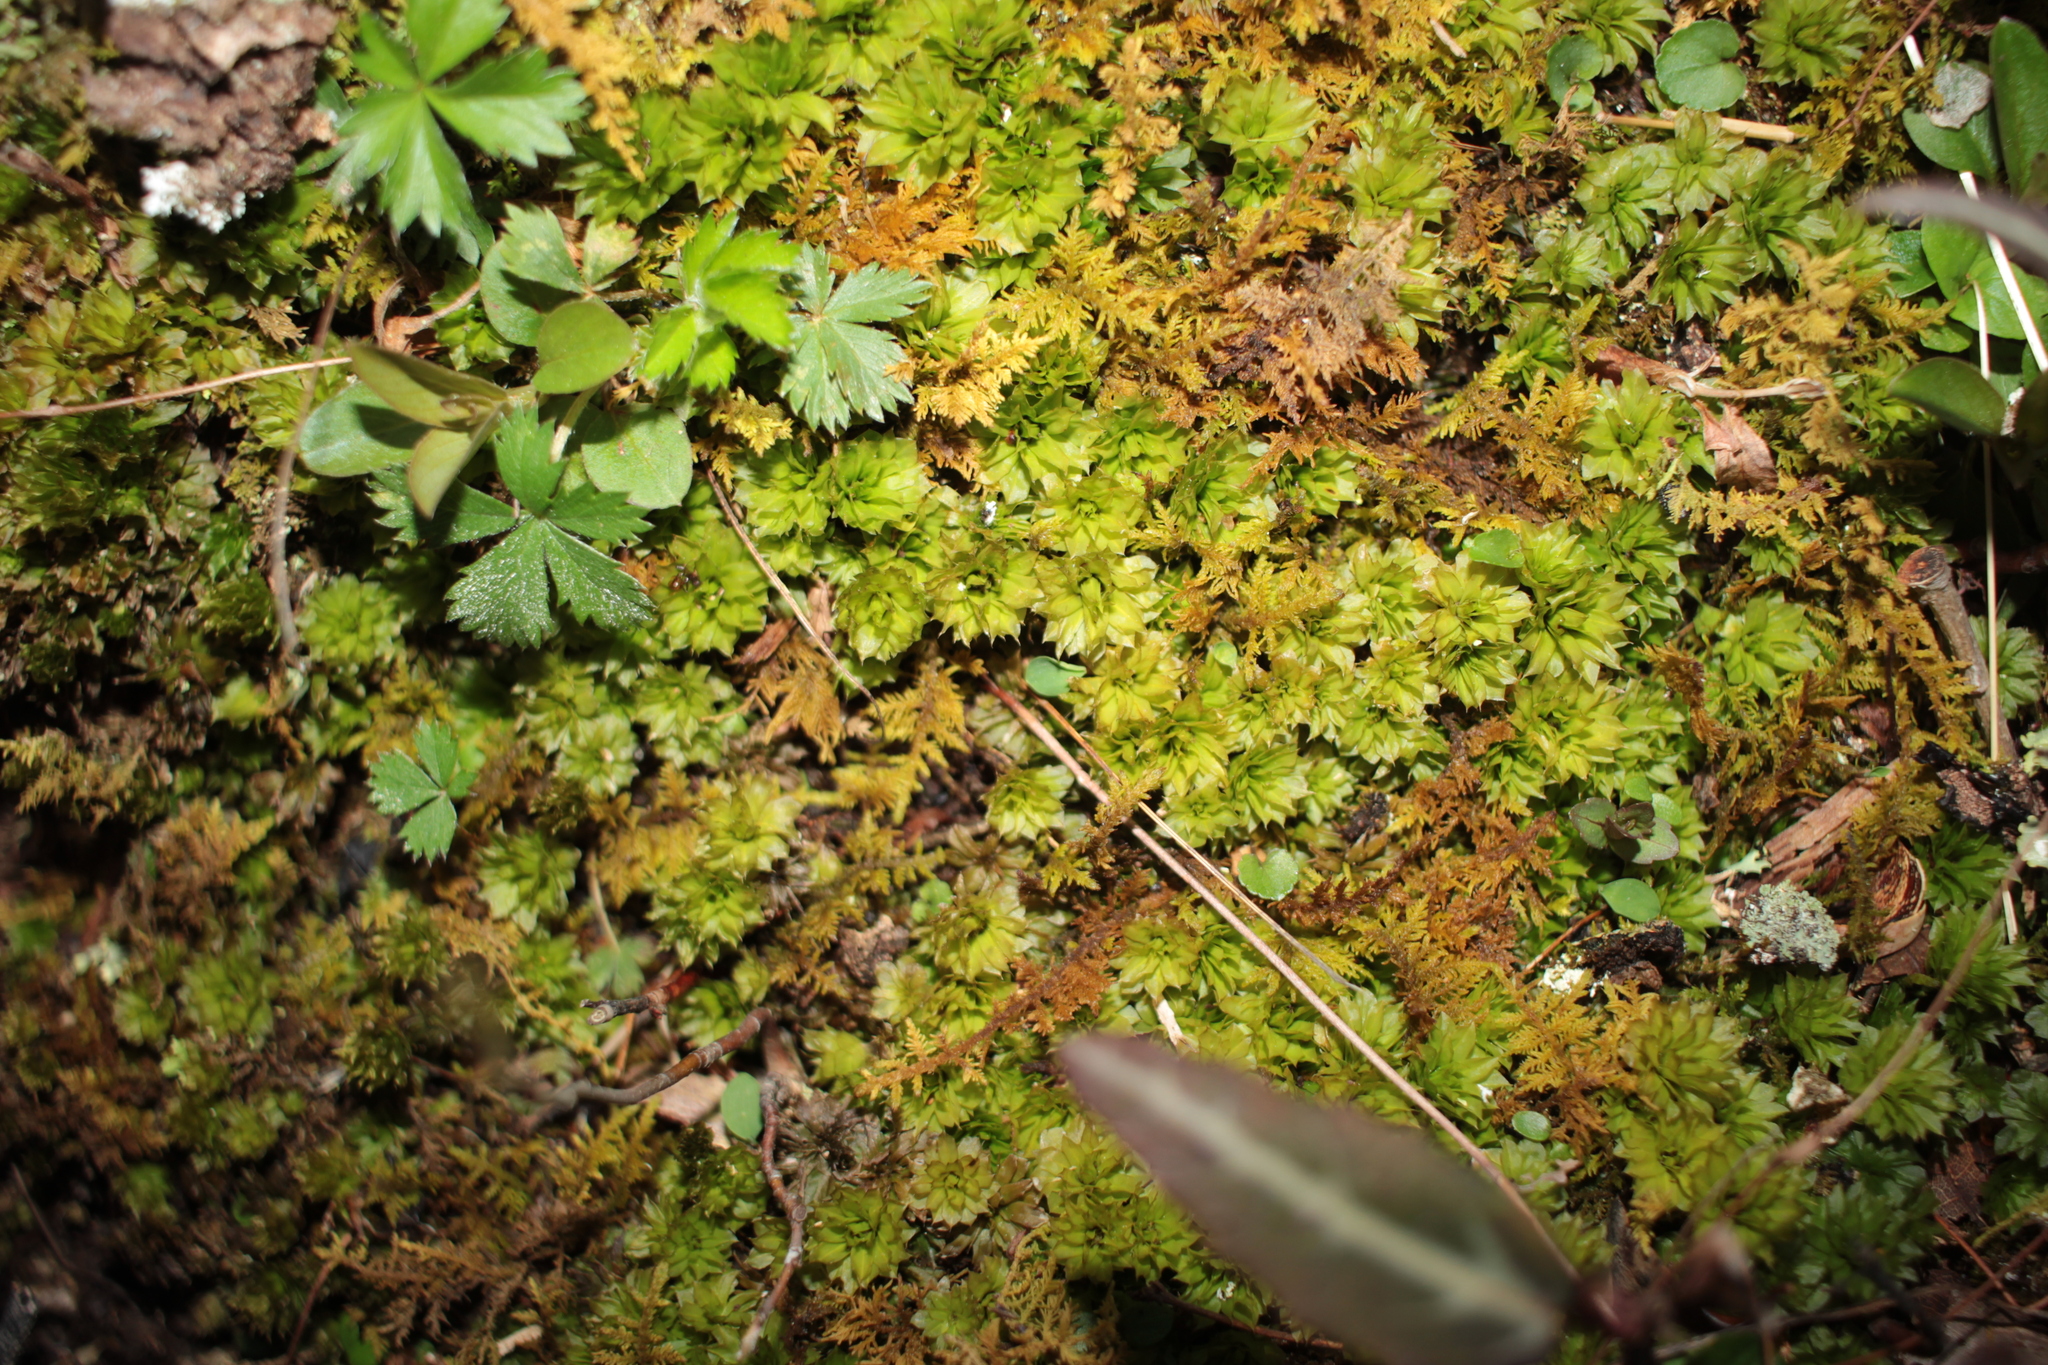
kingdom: Plantae
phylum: Bryophyta
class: Bryopsida
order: Bryales
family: Bryaceae
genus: Rhodobryum
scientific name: Rhodobryum ontariense
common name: Ontario rhodobryum moss
